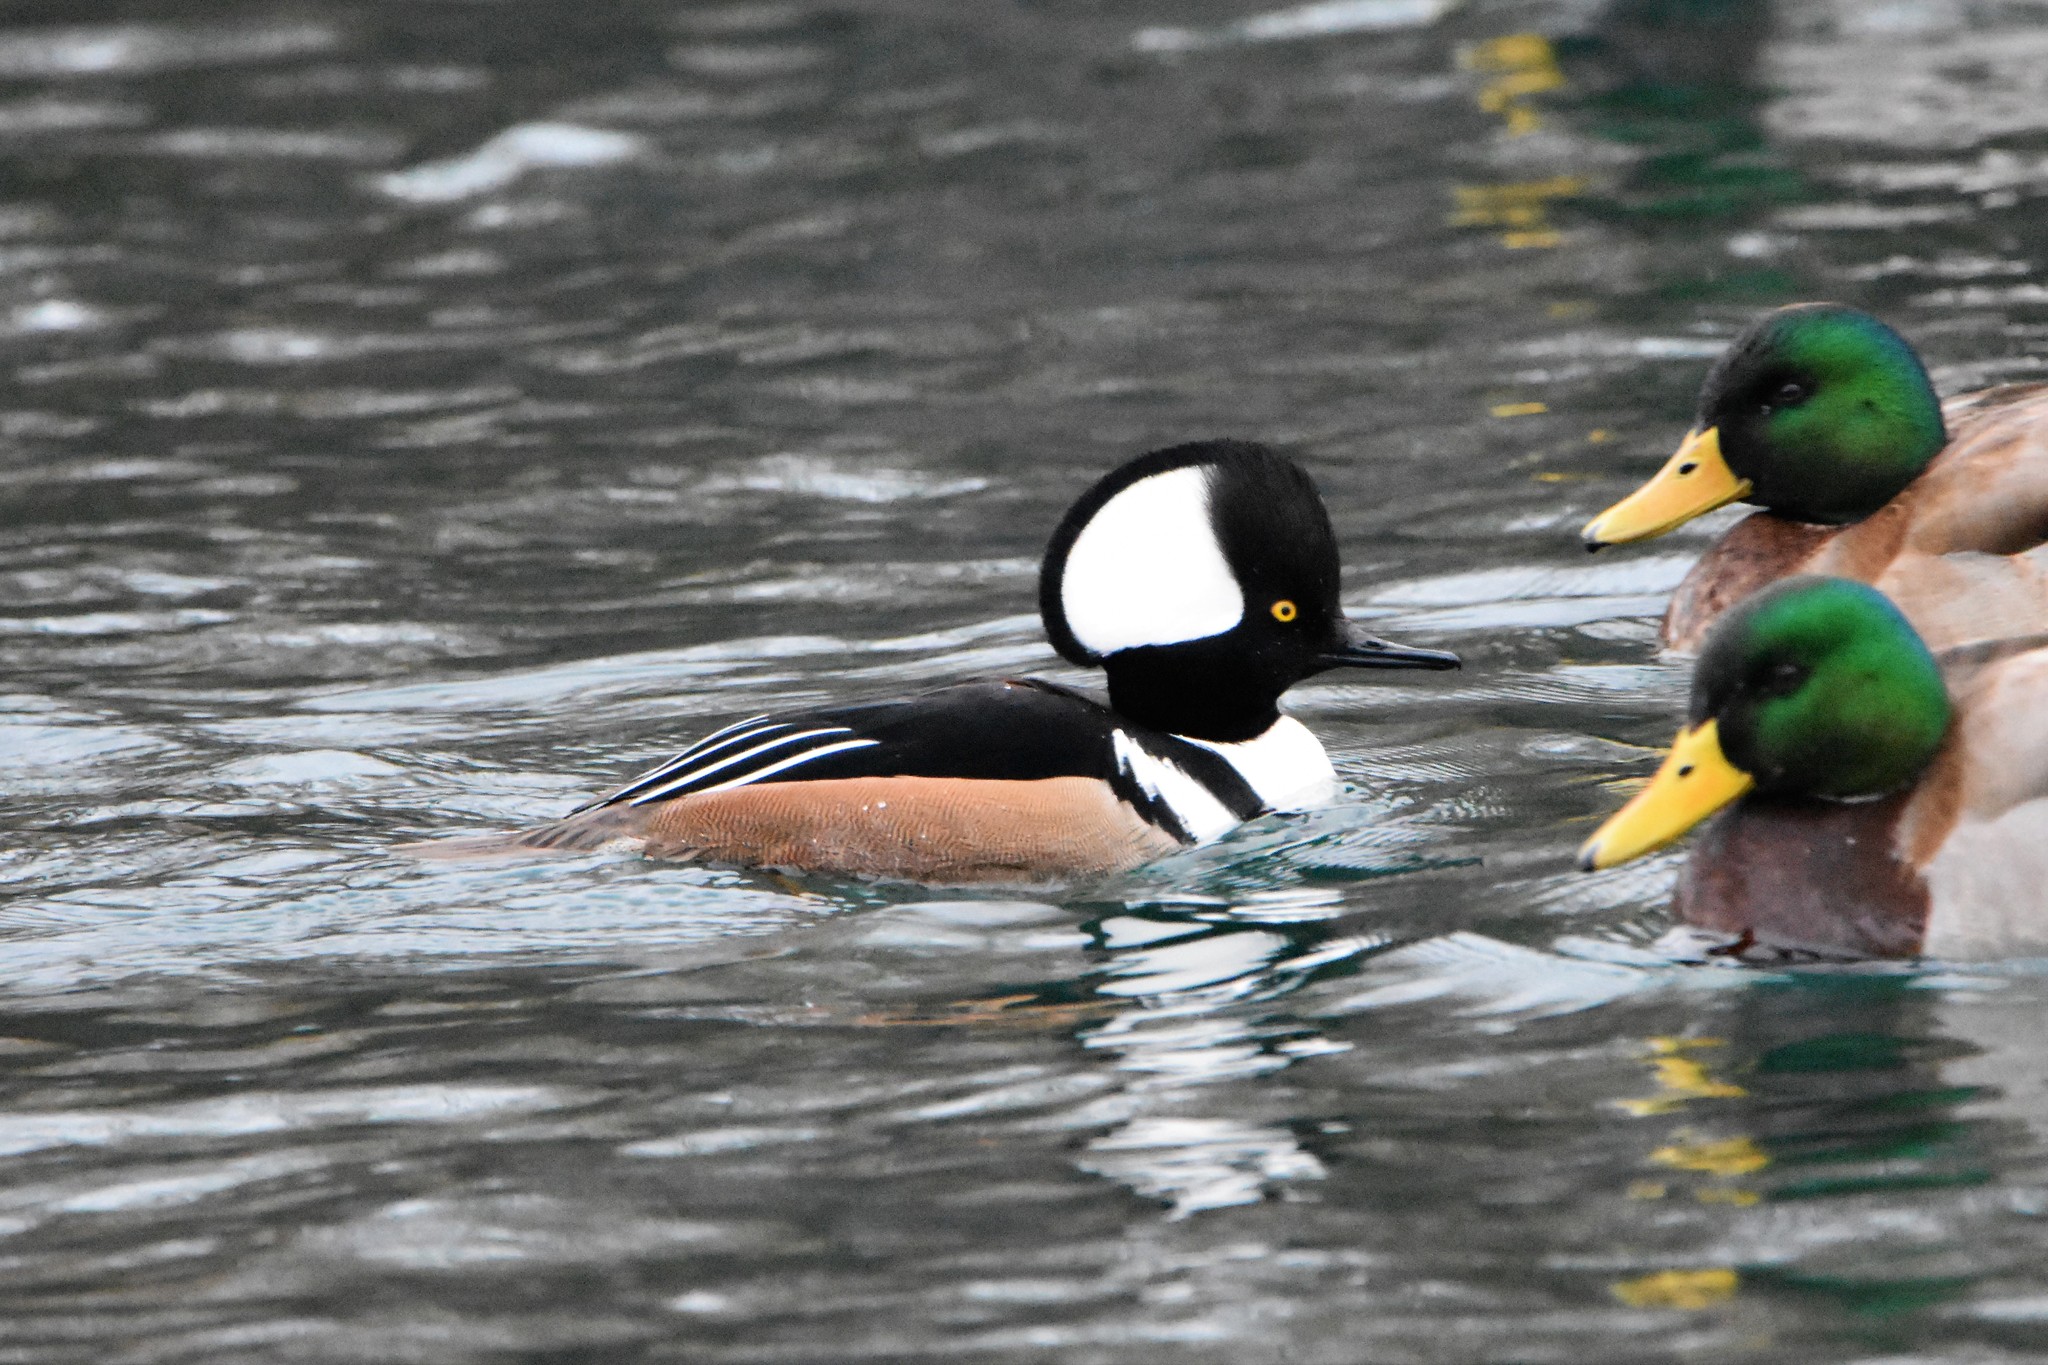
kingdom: Animalia
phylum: Chordata
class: Aves
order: Anseriformes
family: Anatidae
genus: Lophodytes
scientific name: Lophodytes cucullatus
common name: Hooded merganser
